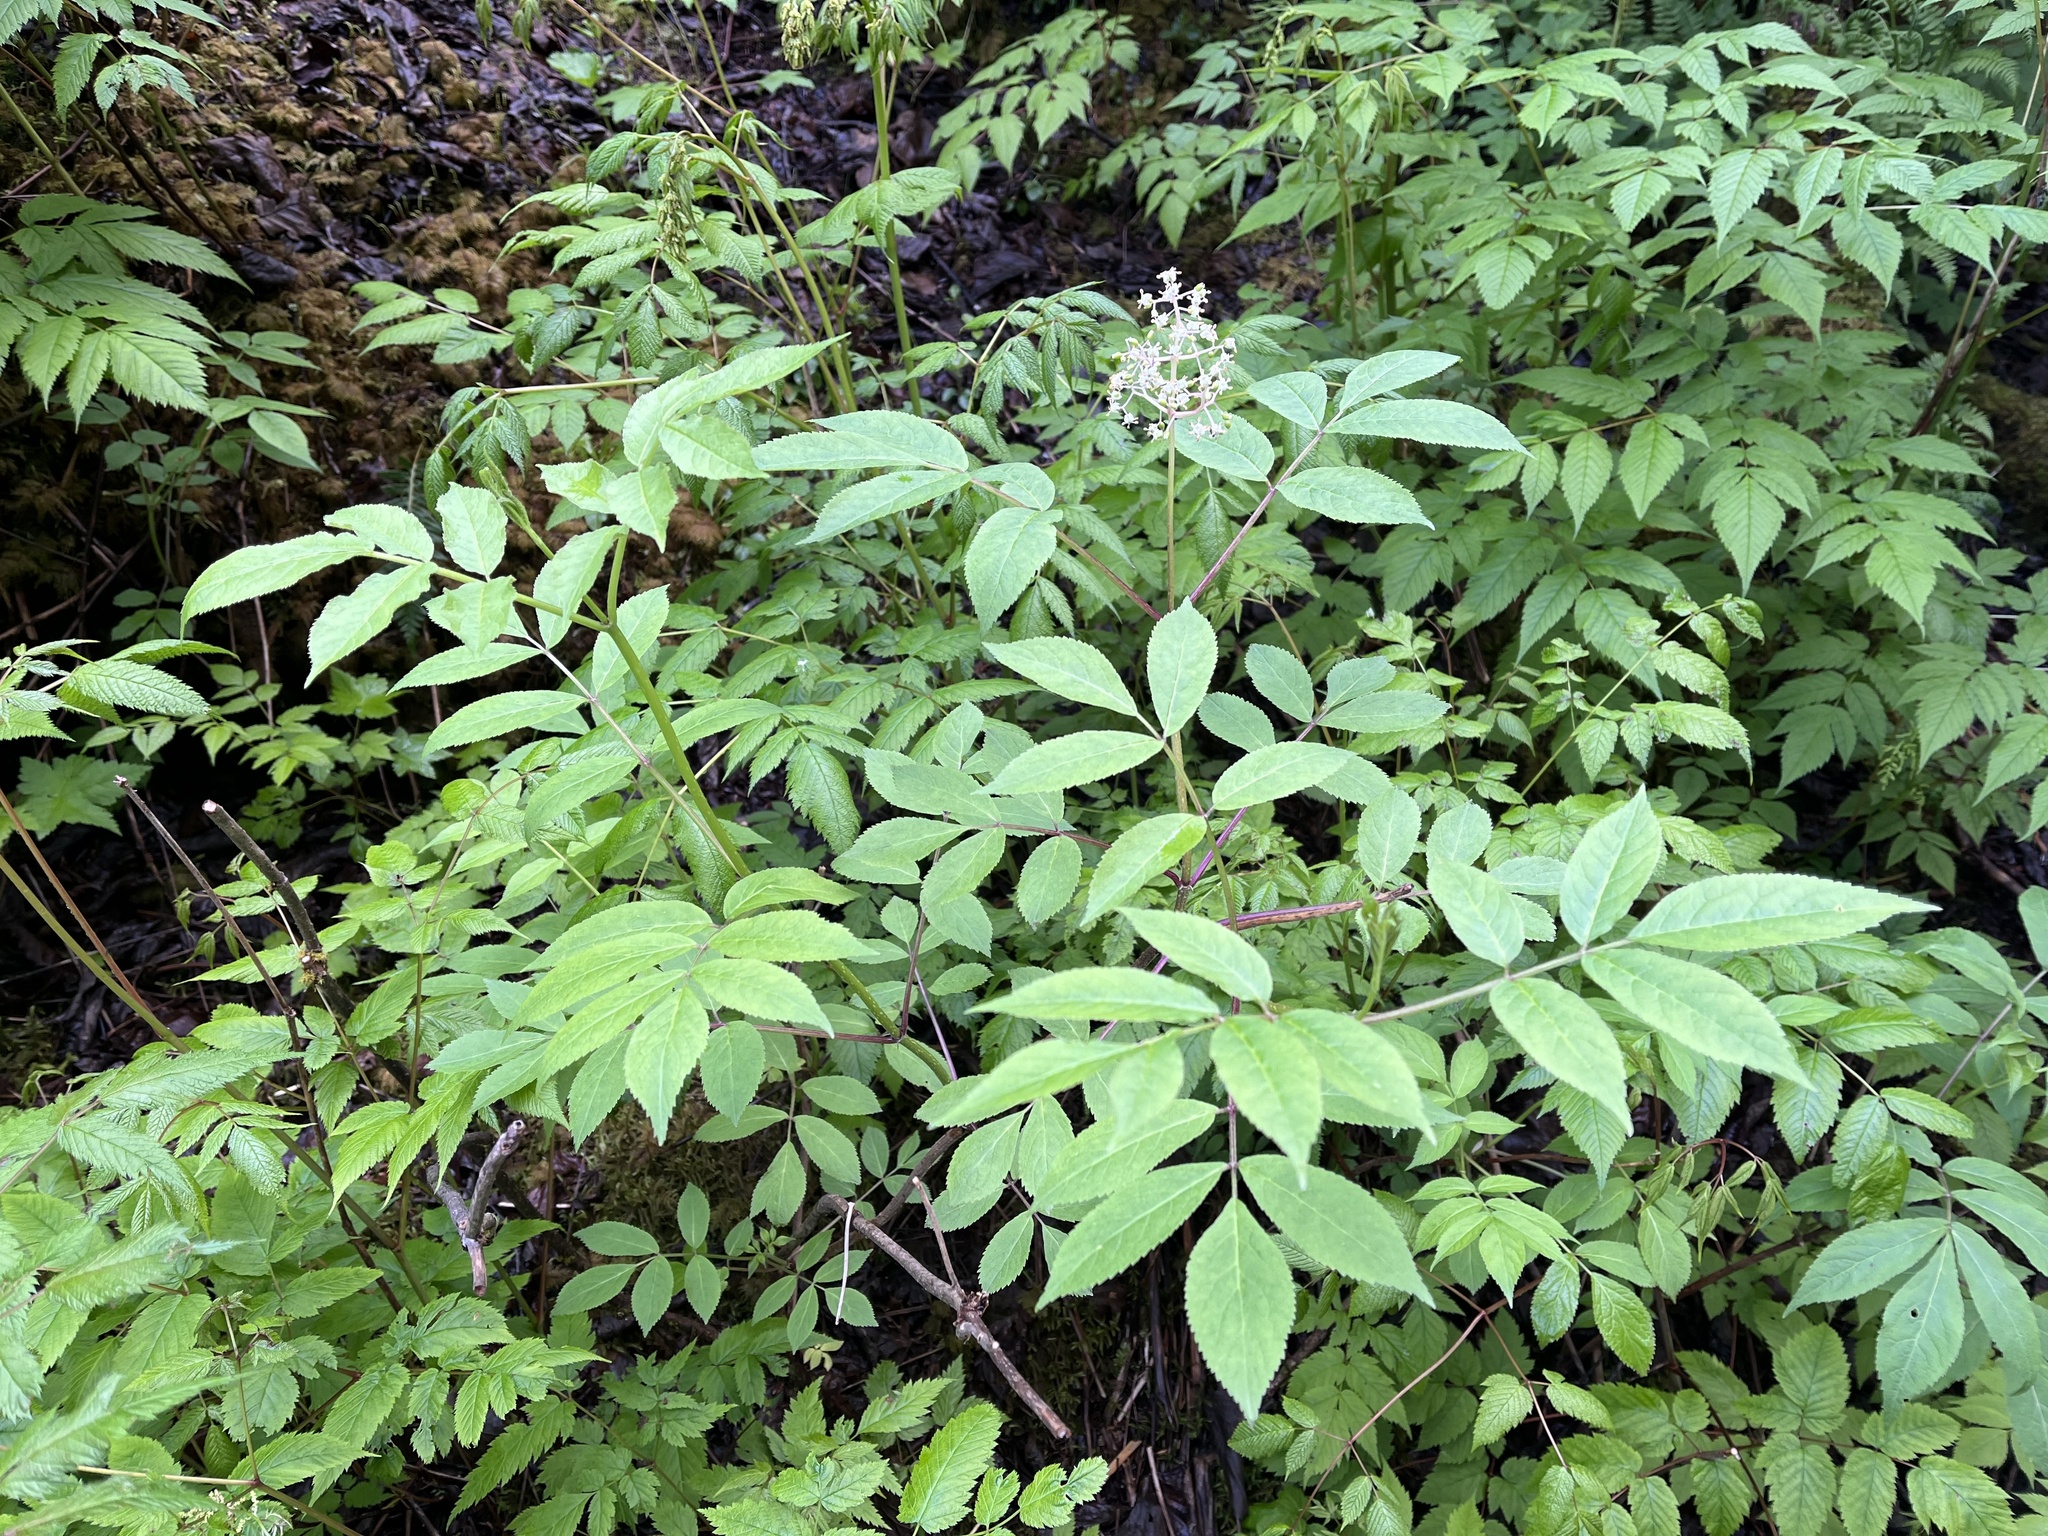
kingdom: Plantae
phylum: Tracheophyta
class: Magnoliopsida
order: Dipsacales
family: Viburnaceae
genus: Sambucus
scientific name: Sambucus racemosa
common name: Red-berried elder
